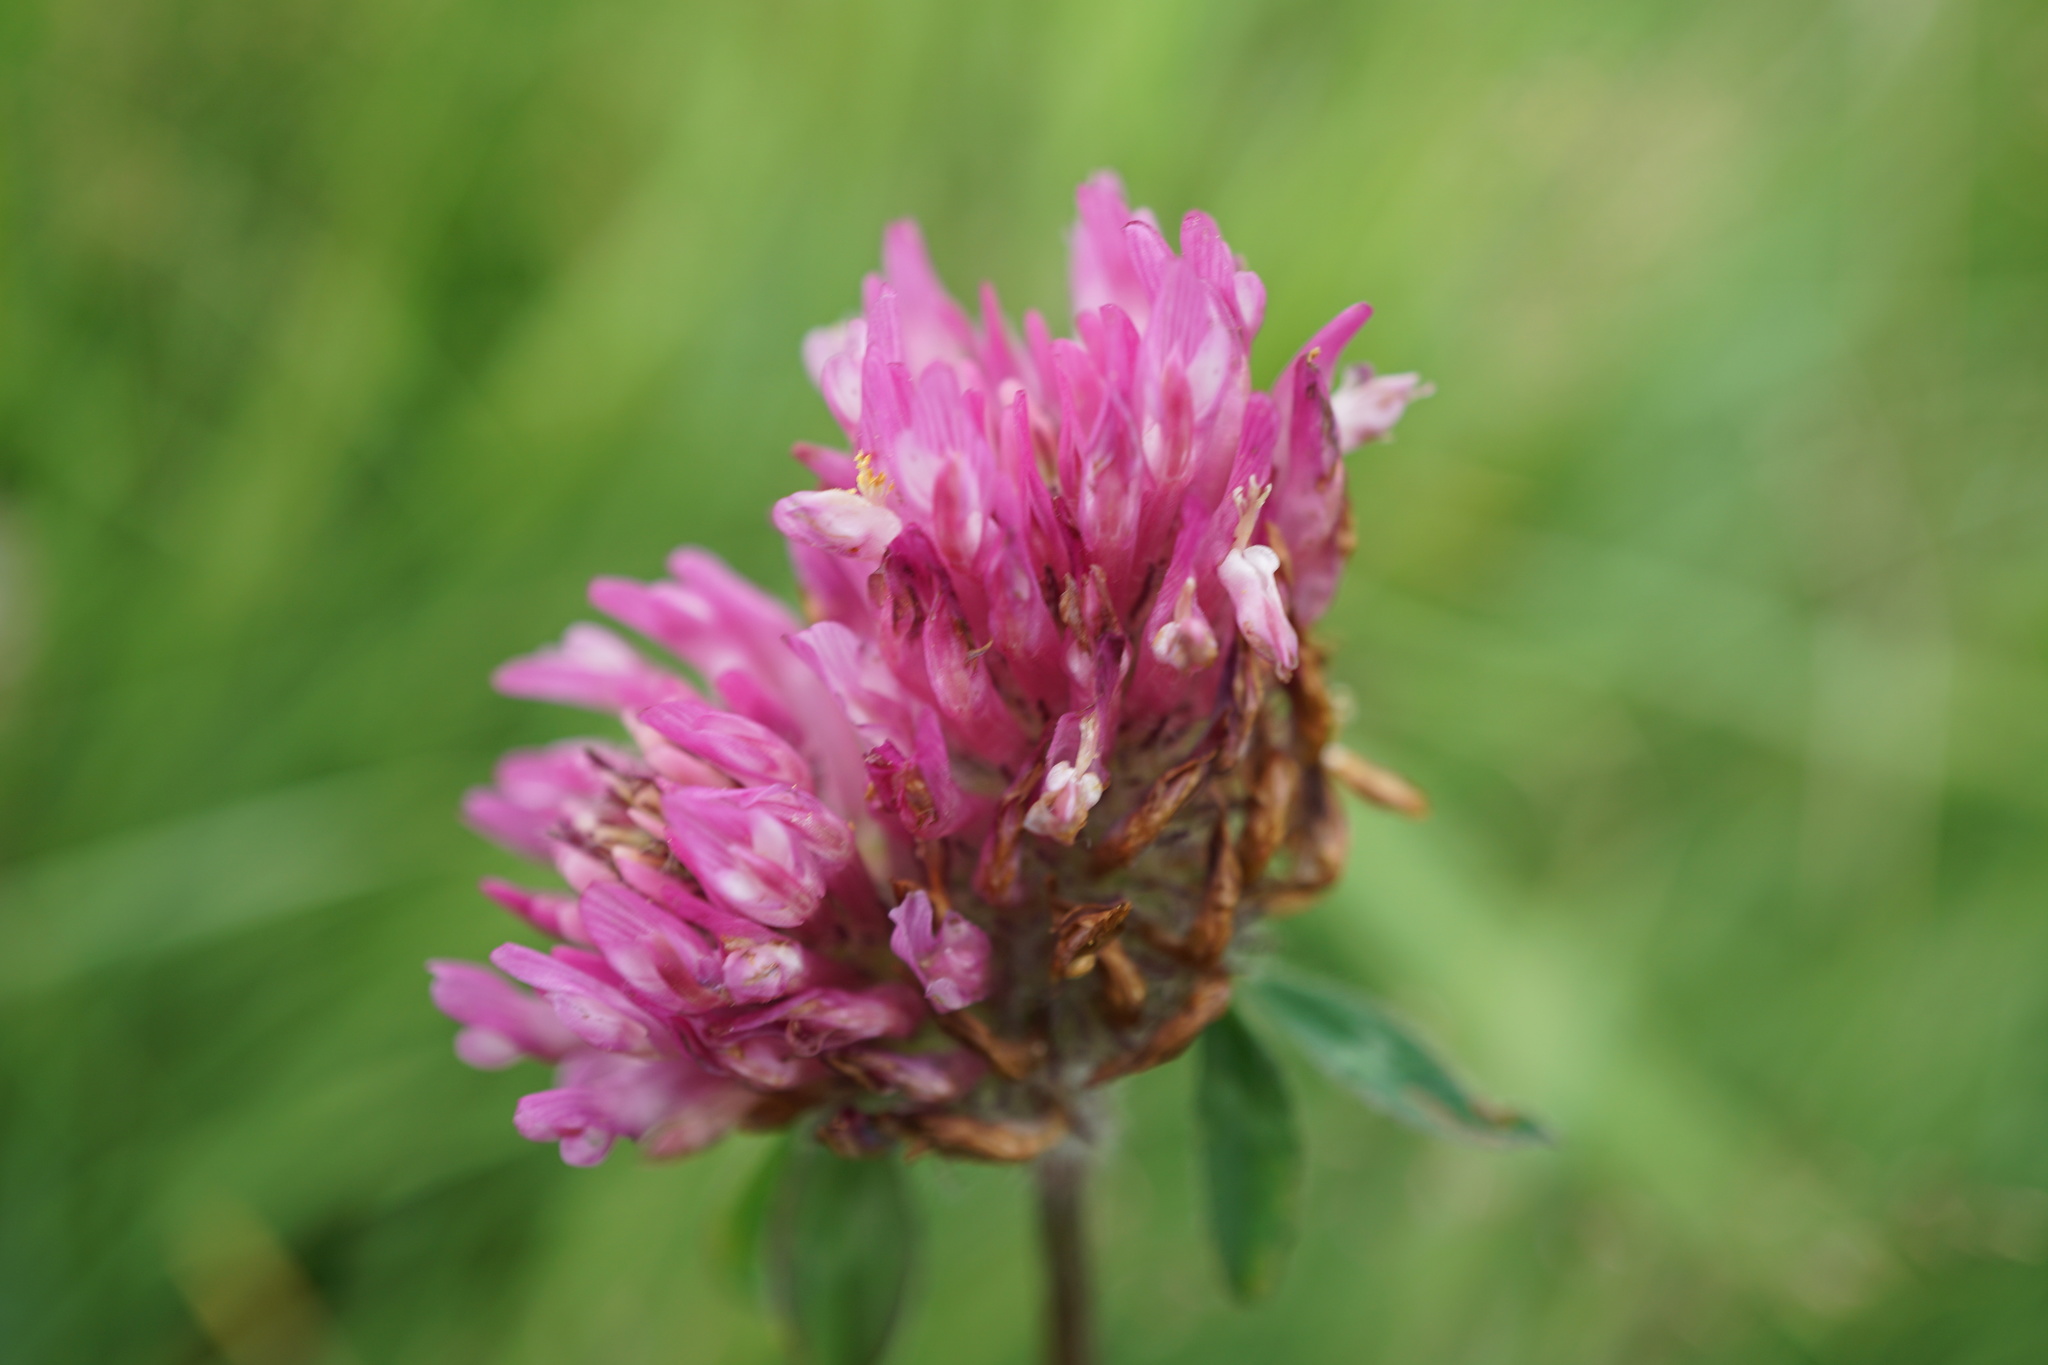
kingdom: Plantae
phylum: Tracheophyta
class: Magnoliopsida
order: Fabales
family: Fabaceae
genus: Trifolium
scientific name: Trifolium pratense
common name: Red clover
